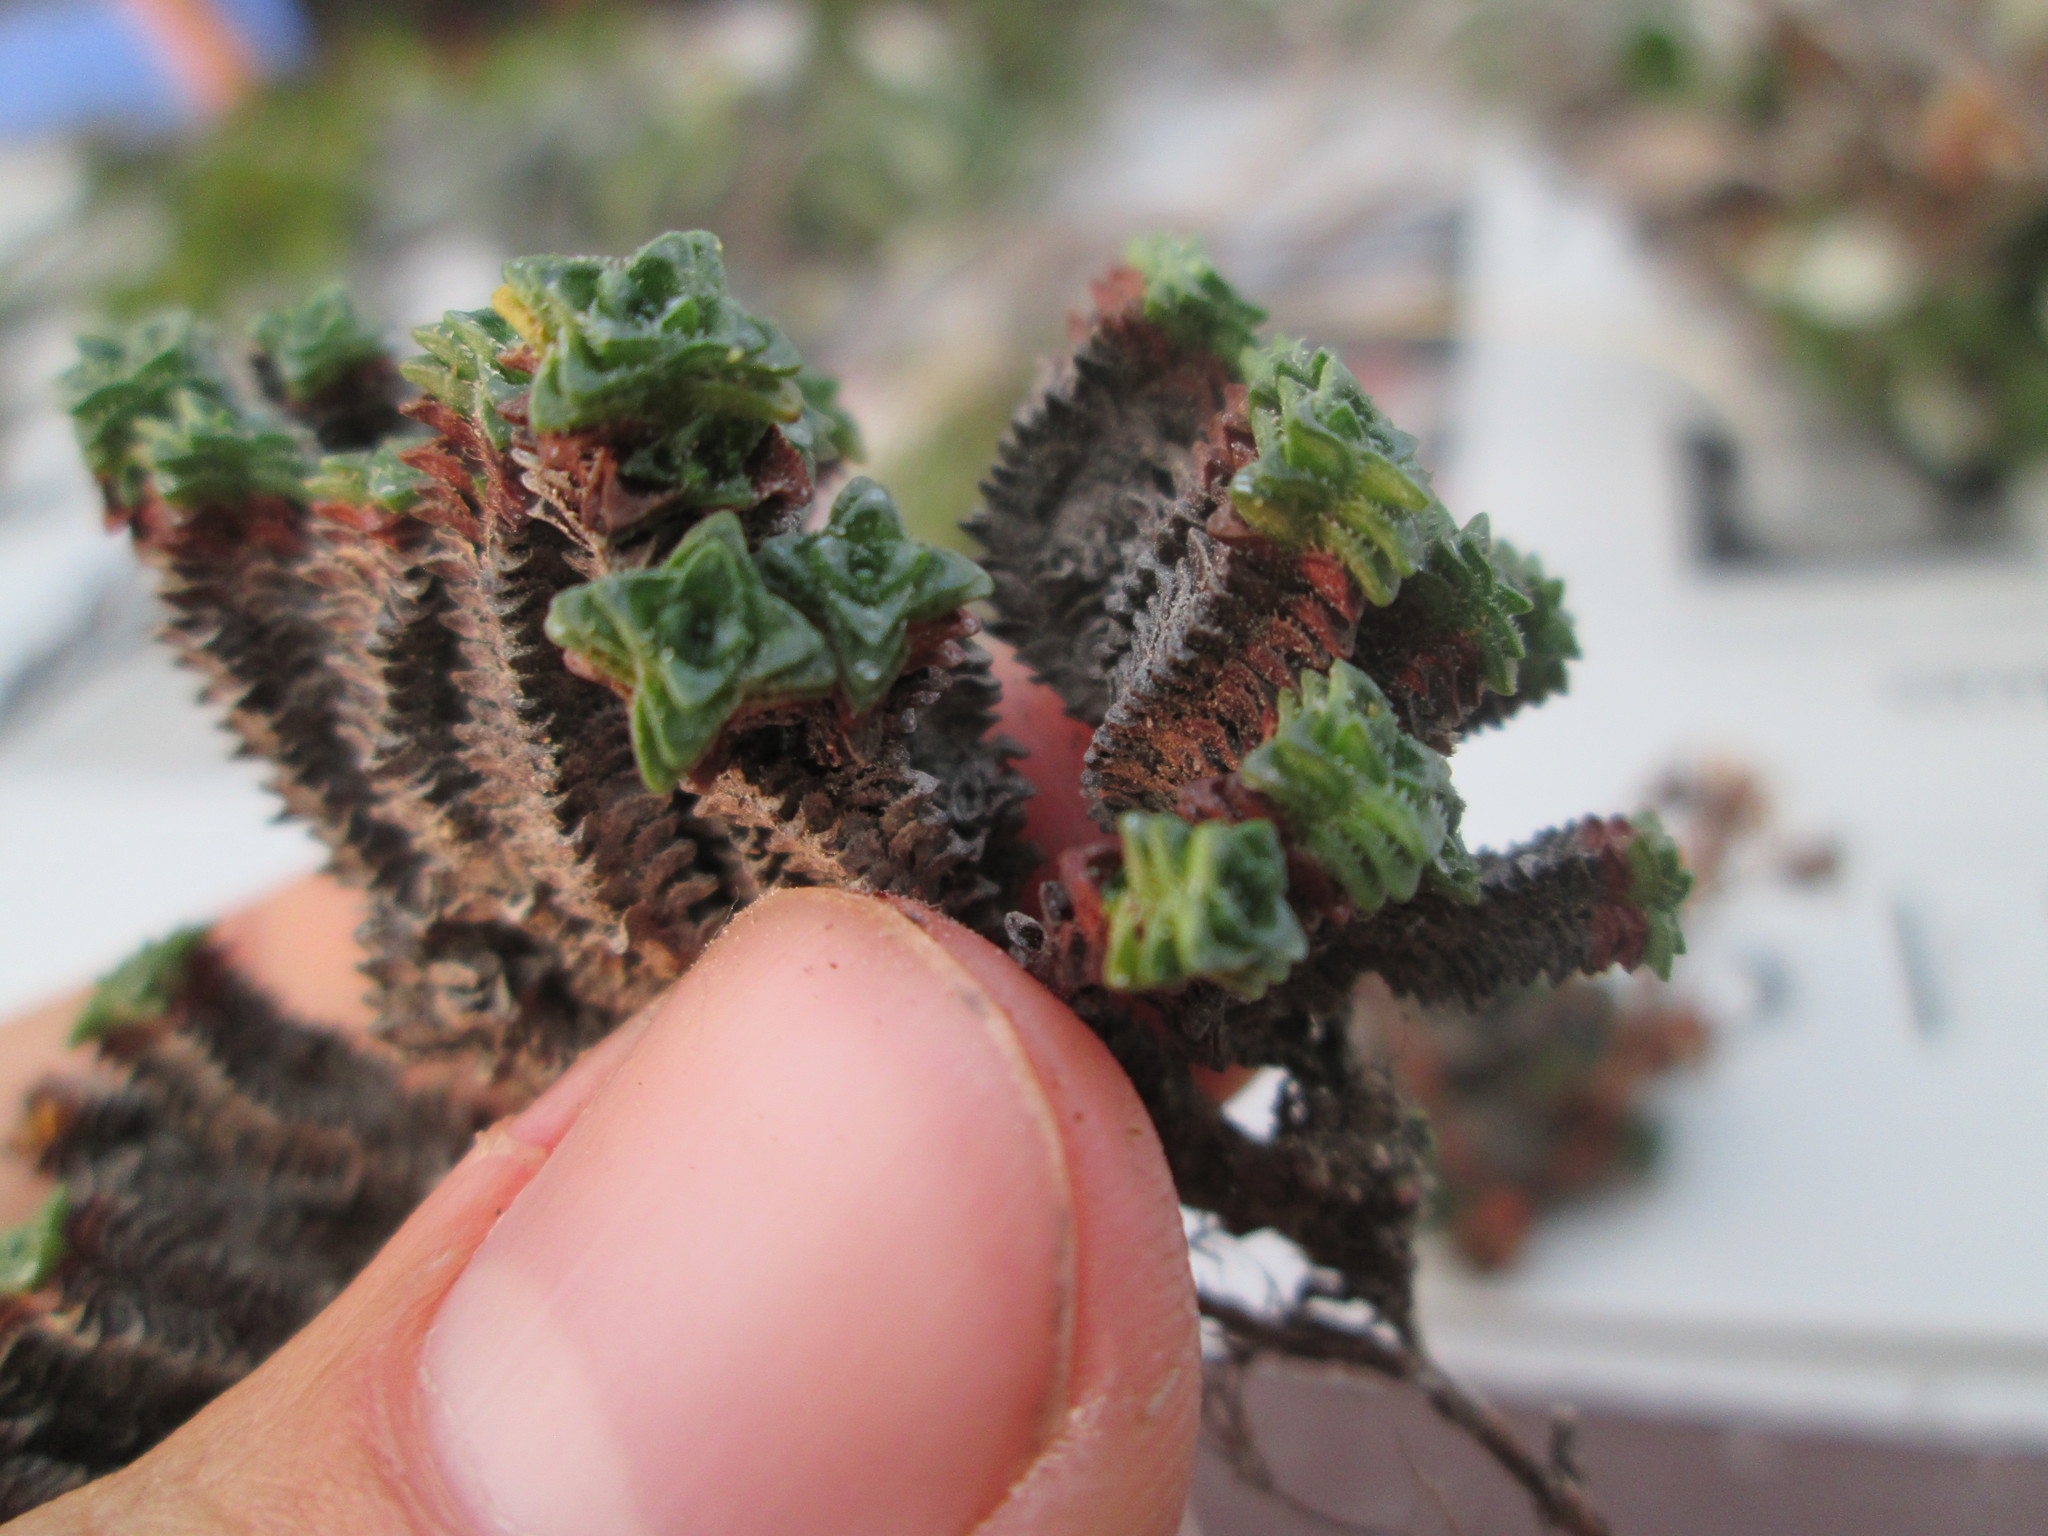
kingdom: Plantae
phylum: Tracheophyta
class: Magnoliopsida
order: Saxifragales
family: Saxifragaceae
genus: Saxifraga
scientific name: Saxifraga oppositifolia
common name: Purple saxifrage
